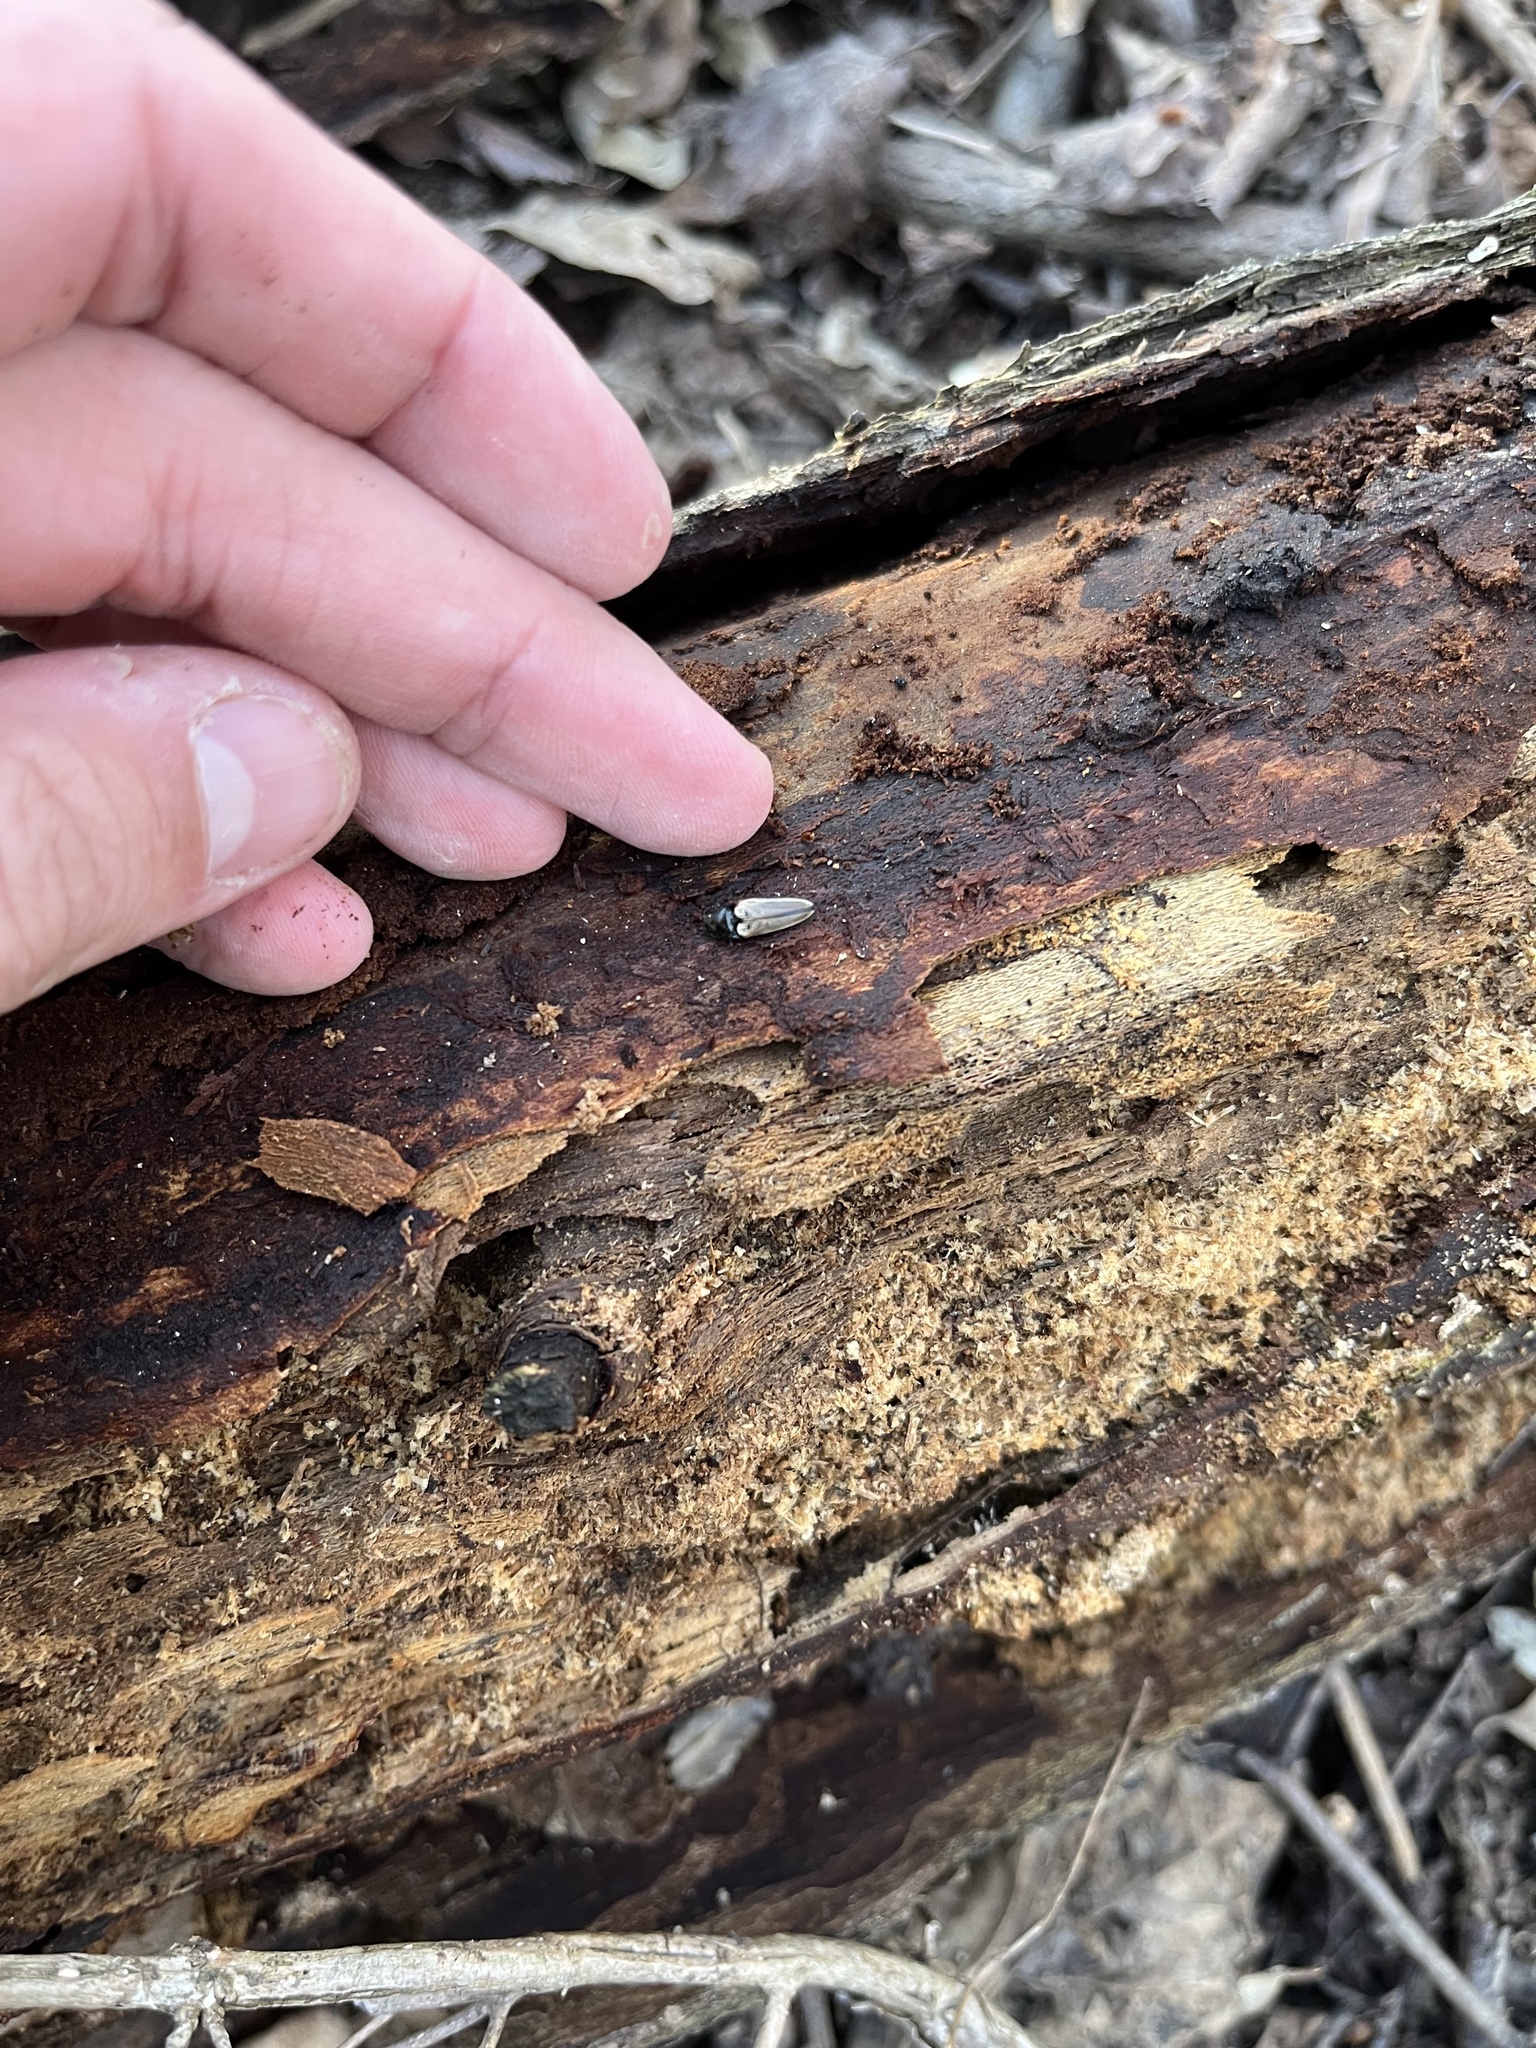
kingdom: Animalia
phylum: Arthropoda
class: Insecta
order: Coleoptera
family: Elateridae
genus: Ampedus
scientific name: Ampedus nigricollis
